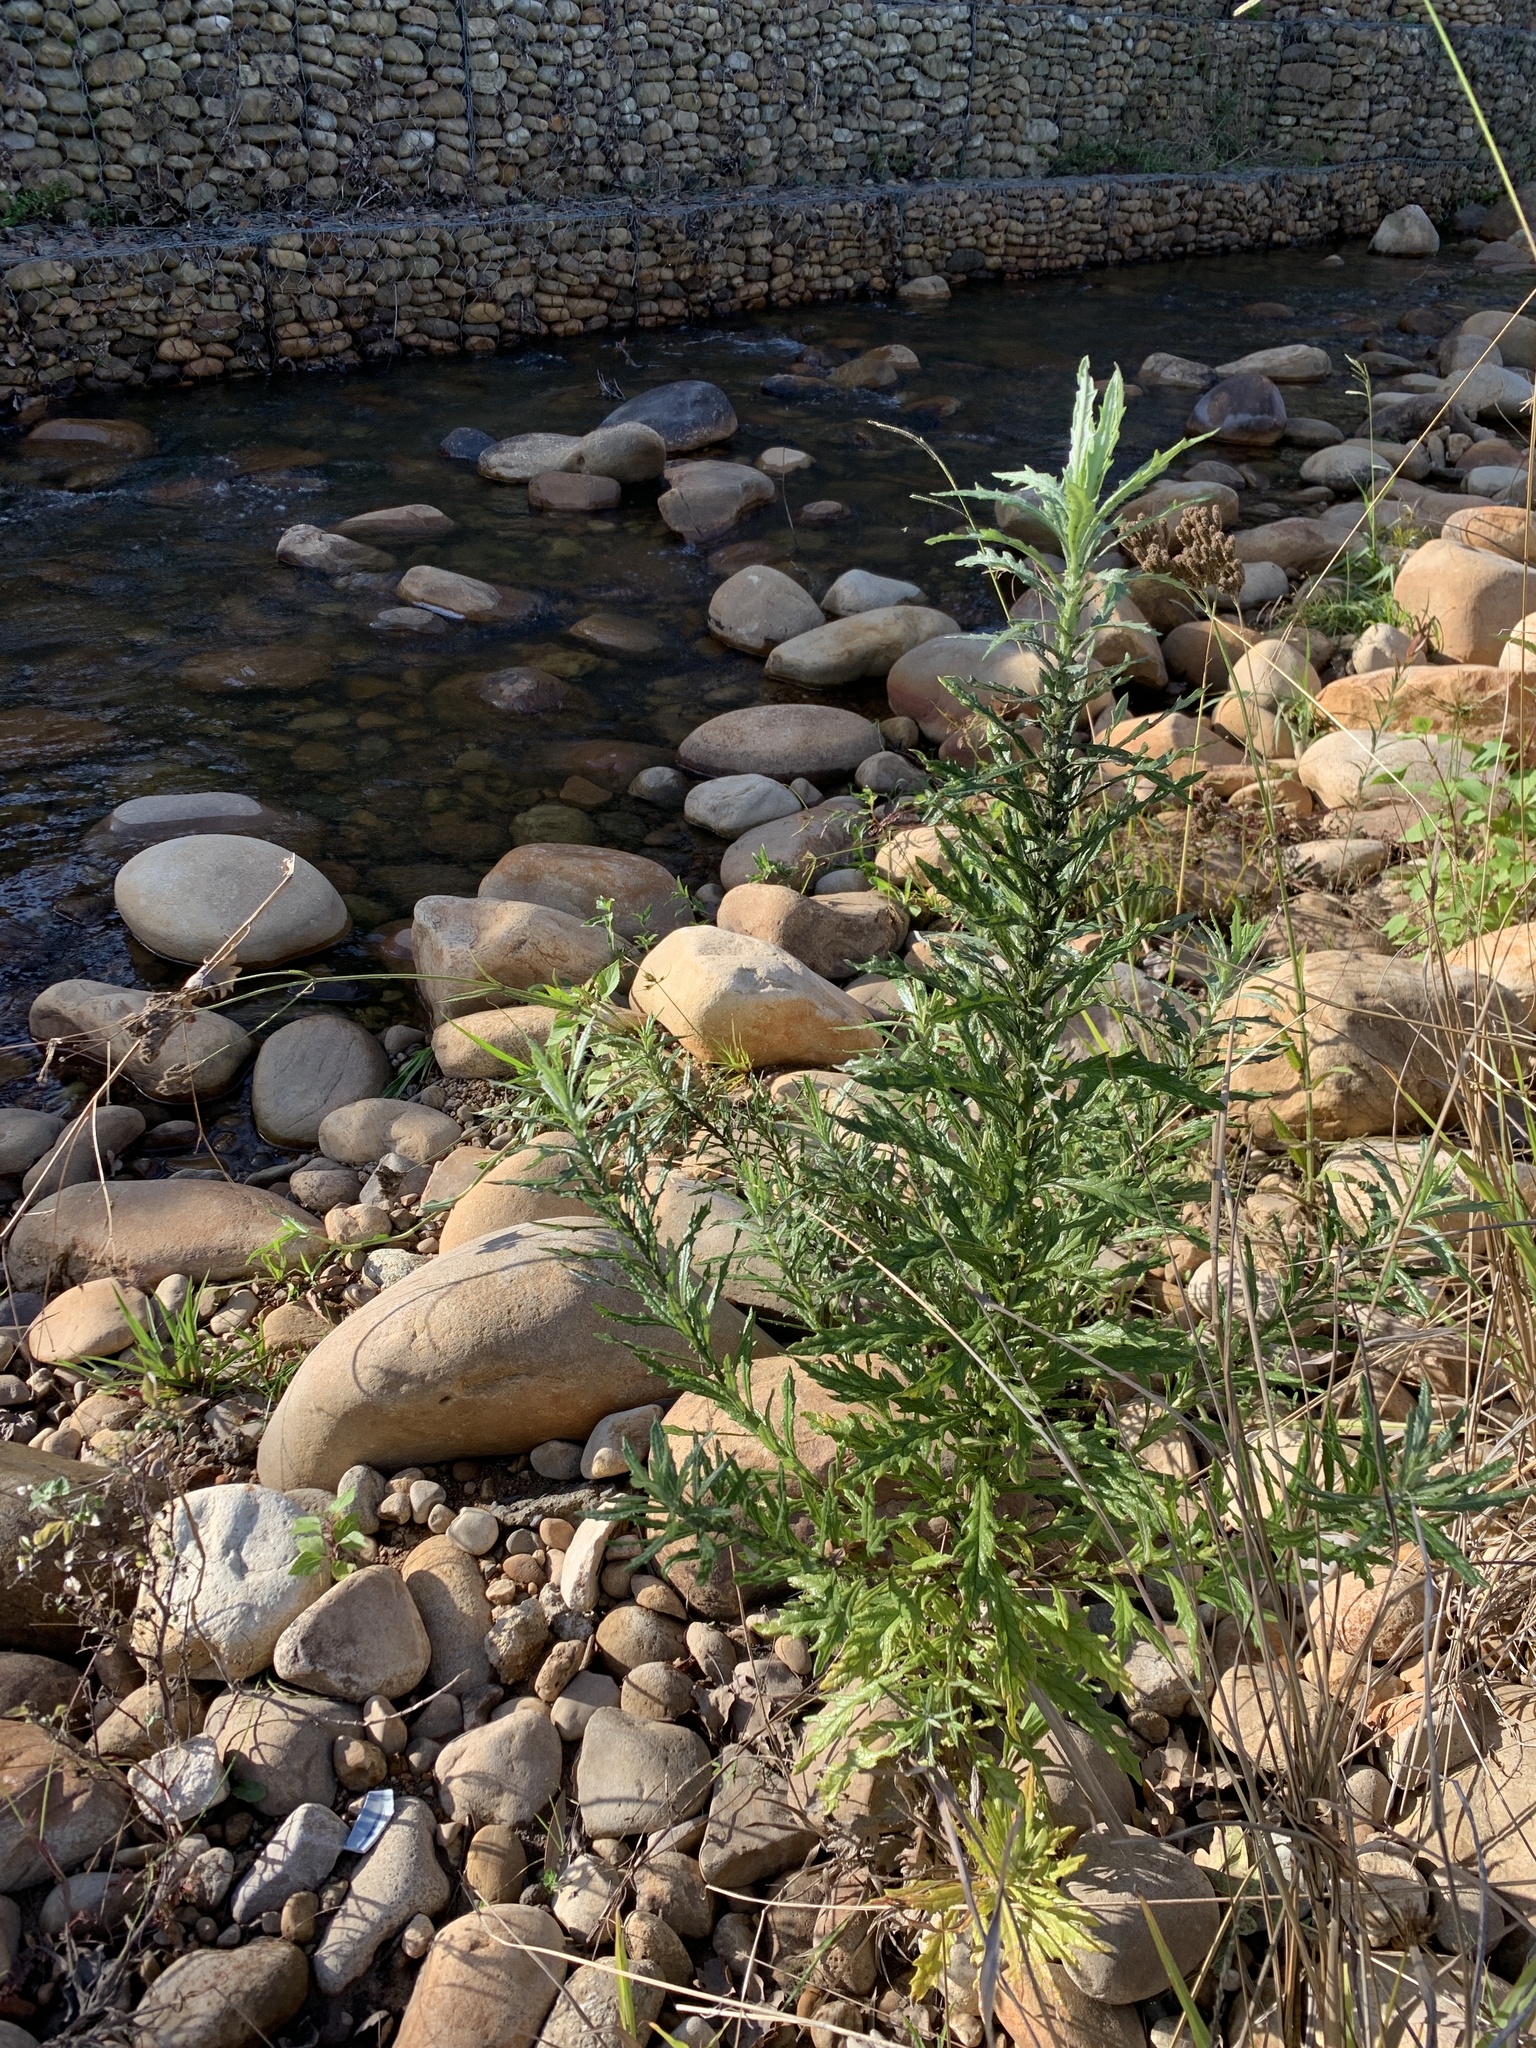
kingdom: Plantae
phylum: Tracheophyta
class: Magnoliopsida
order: Asterales
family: Asteraceae
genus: Senecio
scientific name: Senecio pterophorus
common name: Shoddy ragwort
